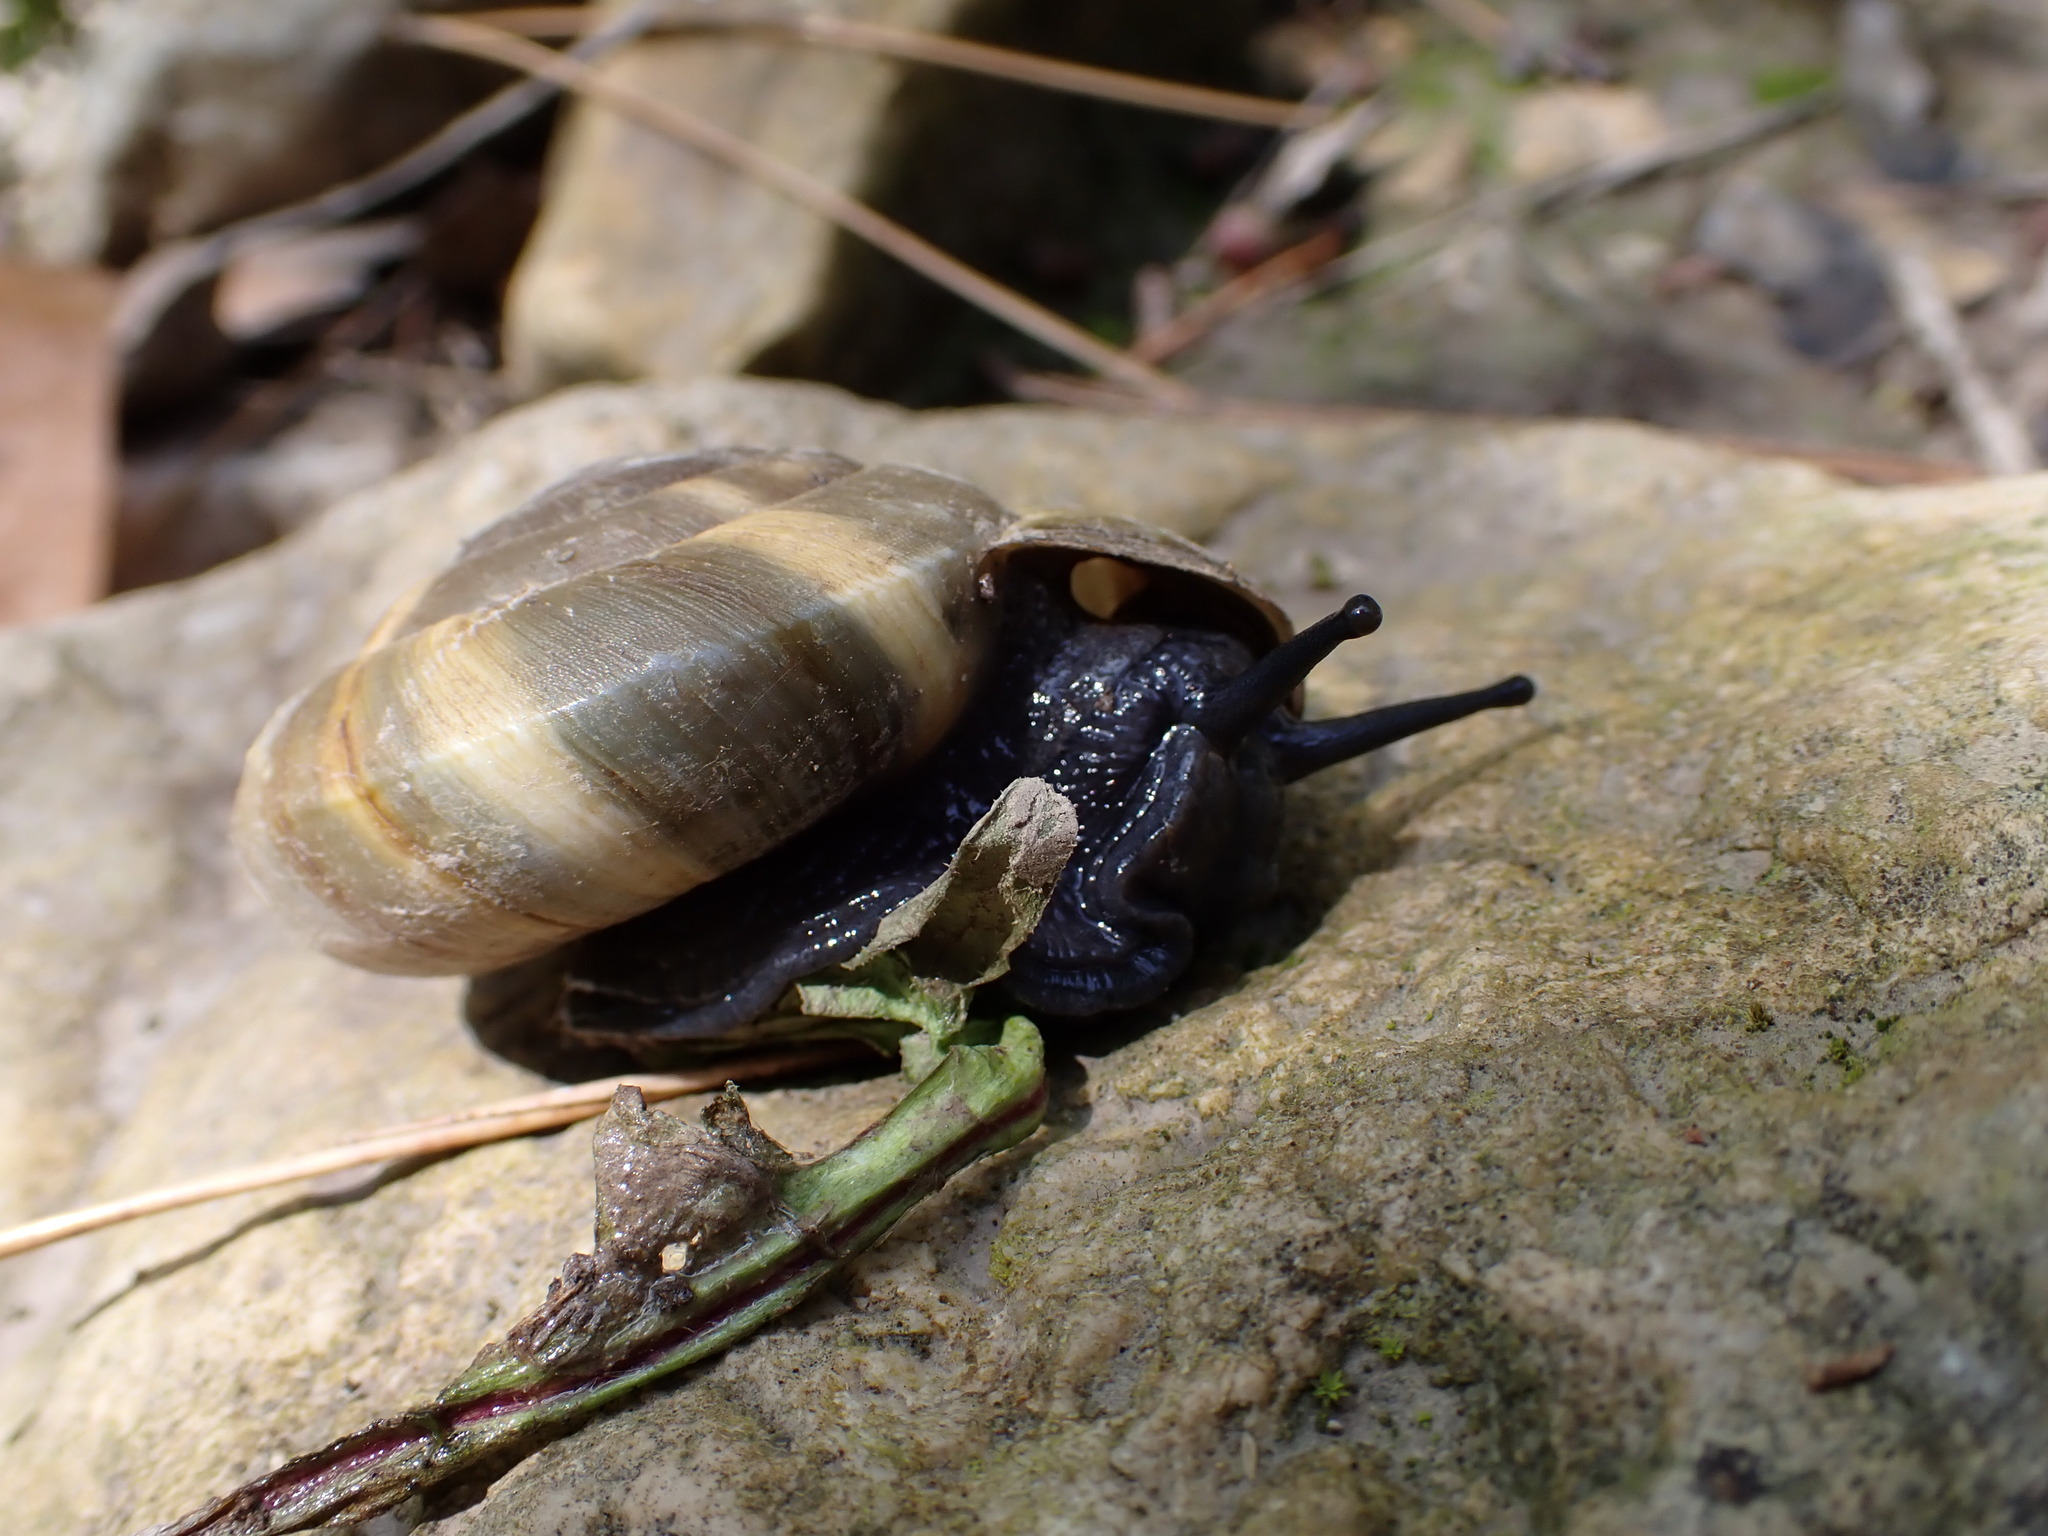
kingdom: Animalia
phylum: Mollusca
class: Gastropoda
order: Stylommatophora
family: Zonitidae
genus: Zonites
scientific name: Zonites algirus
